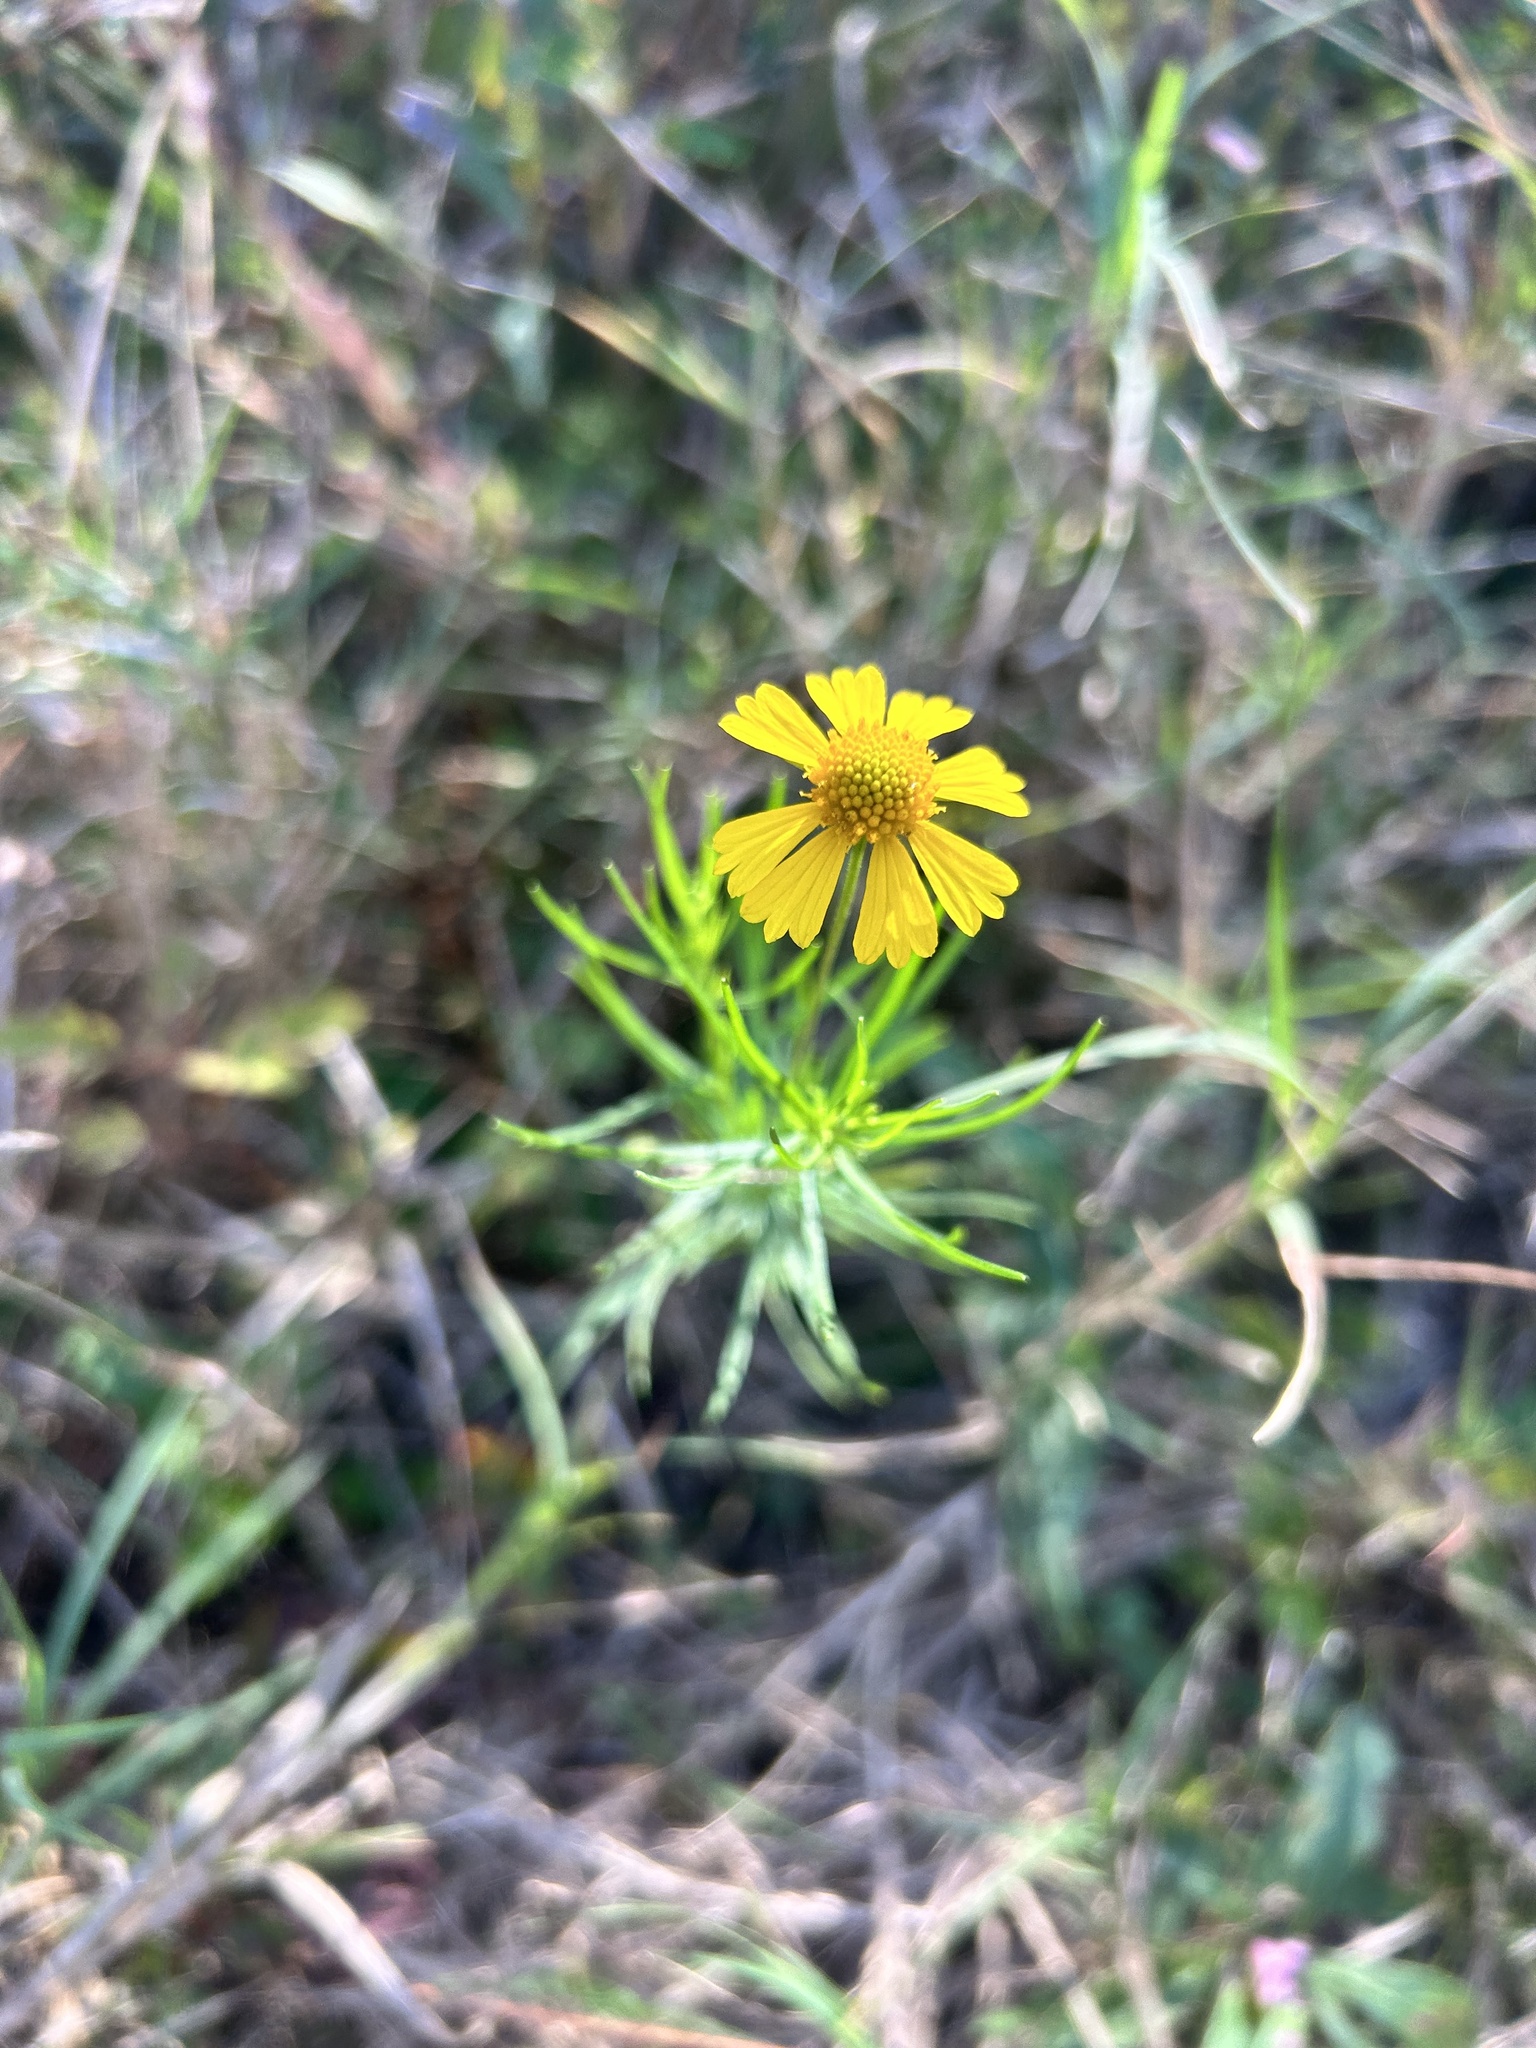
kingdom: Plantae
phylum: Tracheophyta
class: Magnoliopsida
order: Asterales
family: Asteraceae
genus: Helenium
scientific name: Helenium amarum
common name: Bitter sneezeweed
